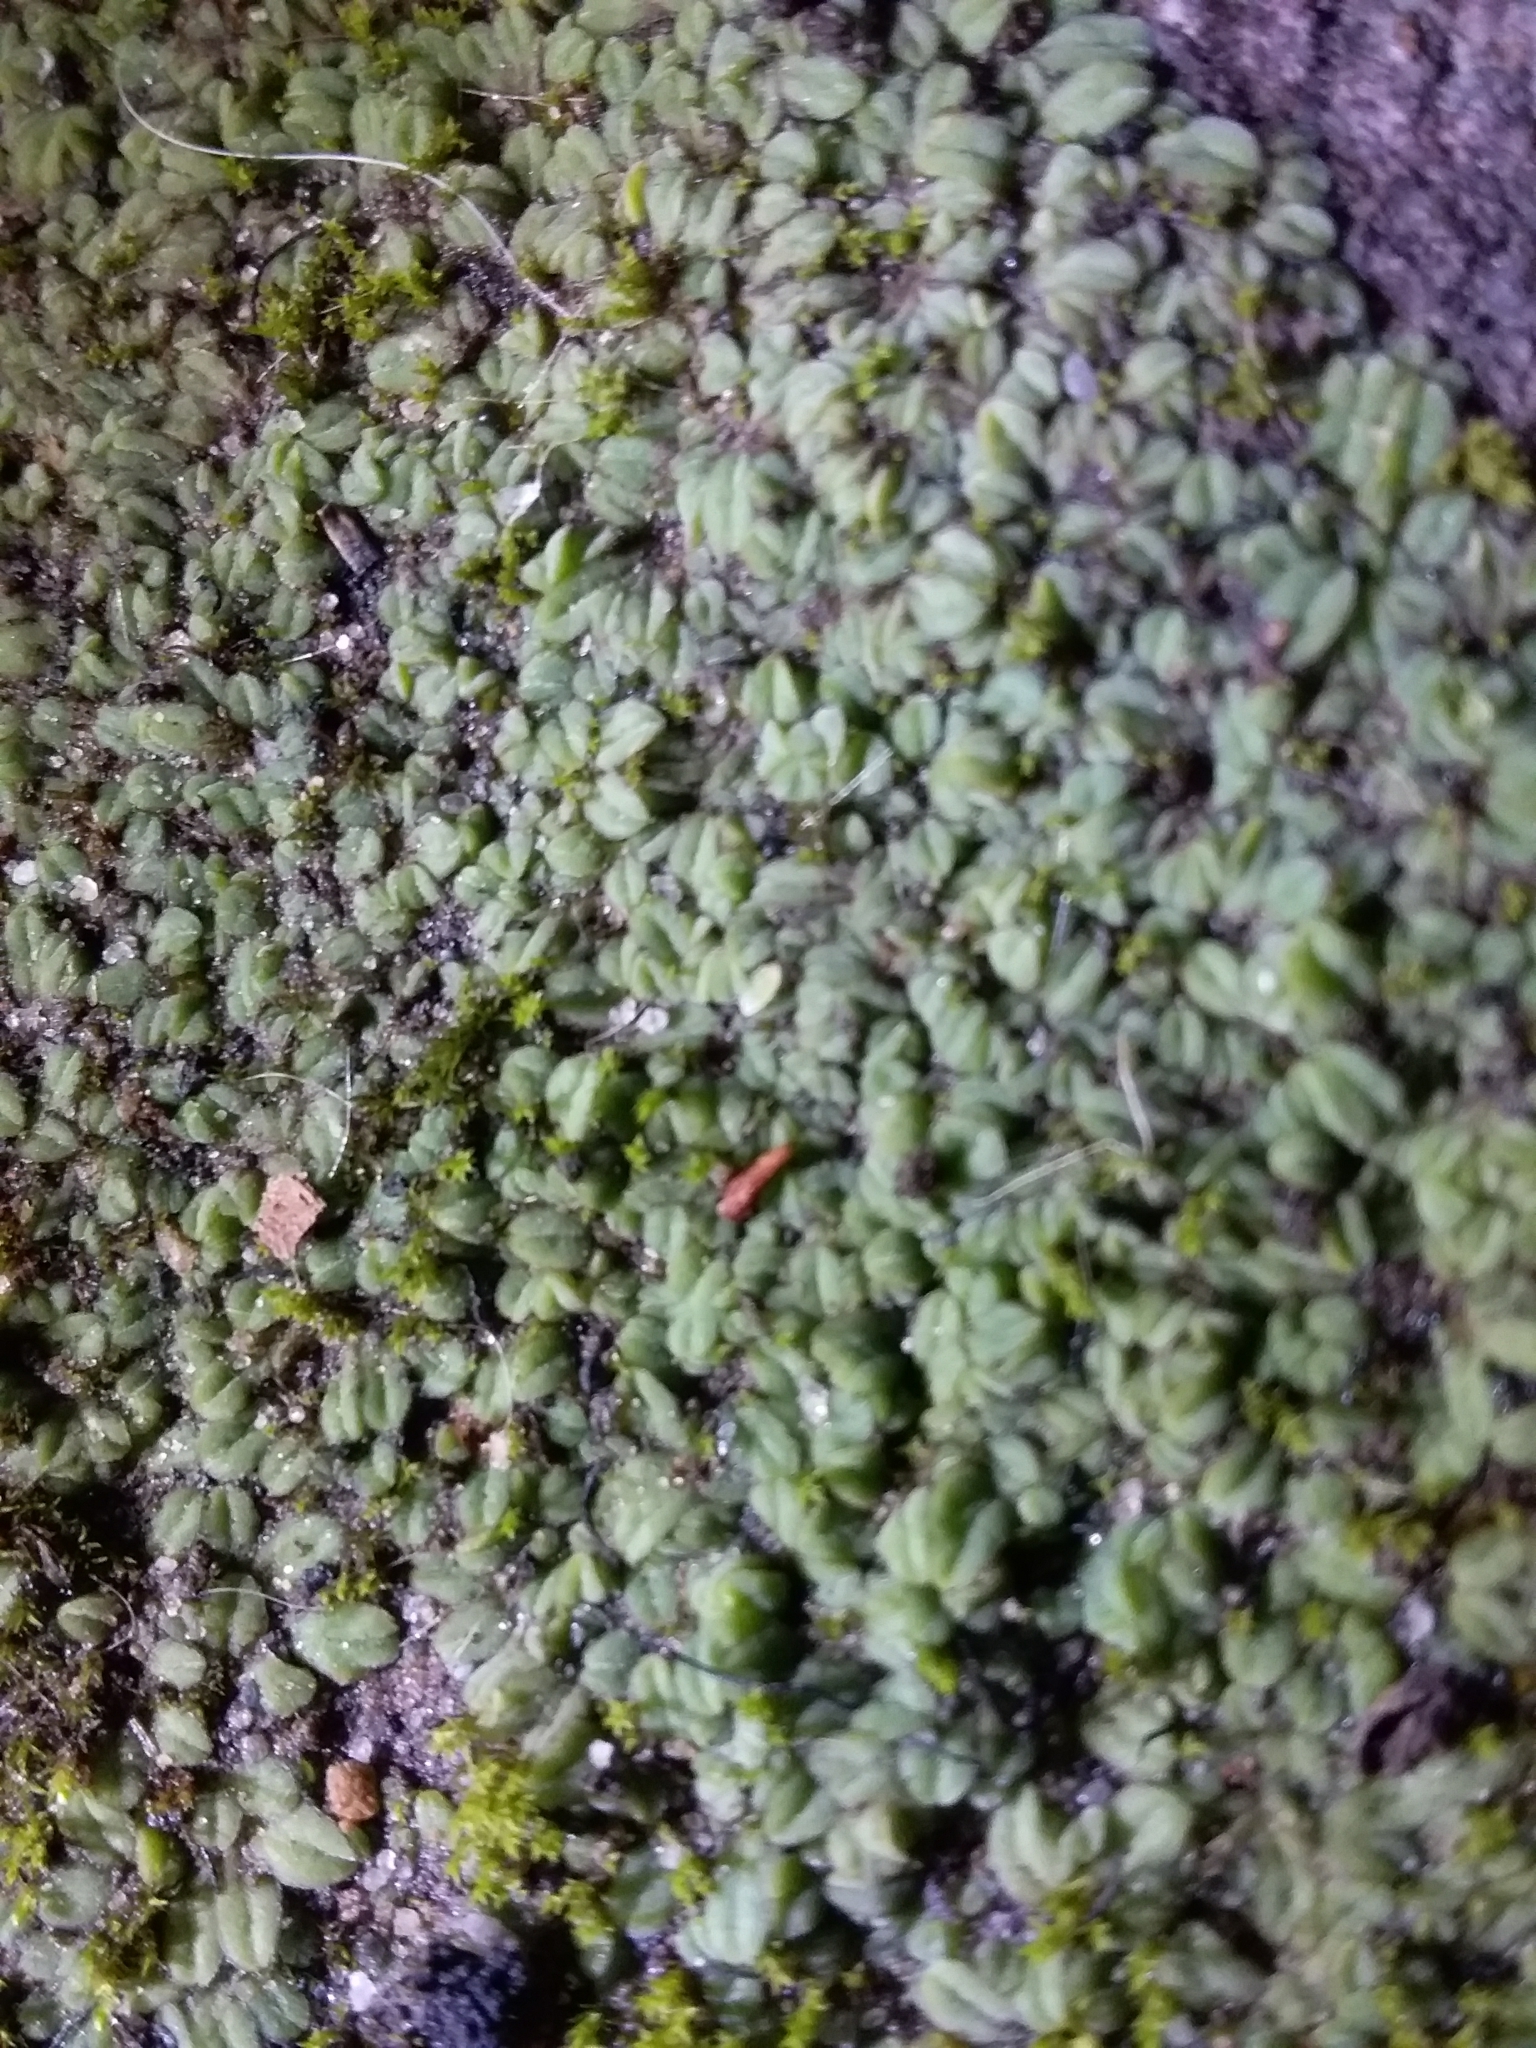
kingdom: Plantae
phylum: Marchantiophyta
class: Marchantiopsida
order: Marchantiales
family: Ricciaceae
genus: Riccia
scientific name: Riccia subbifurca
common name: Least crystalwort
